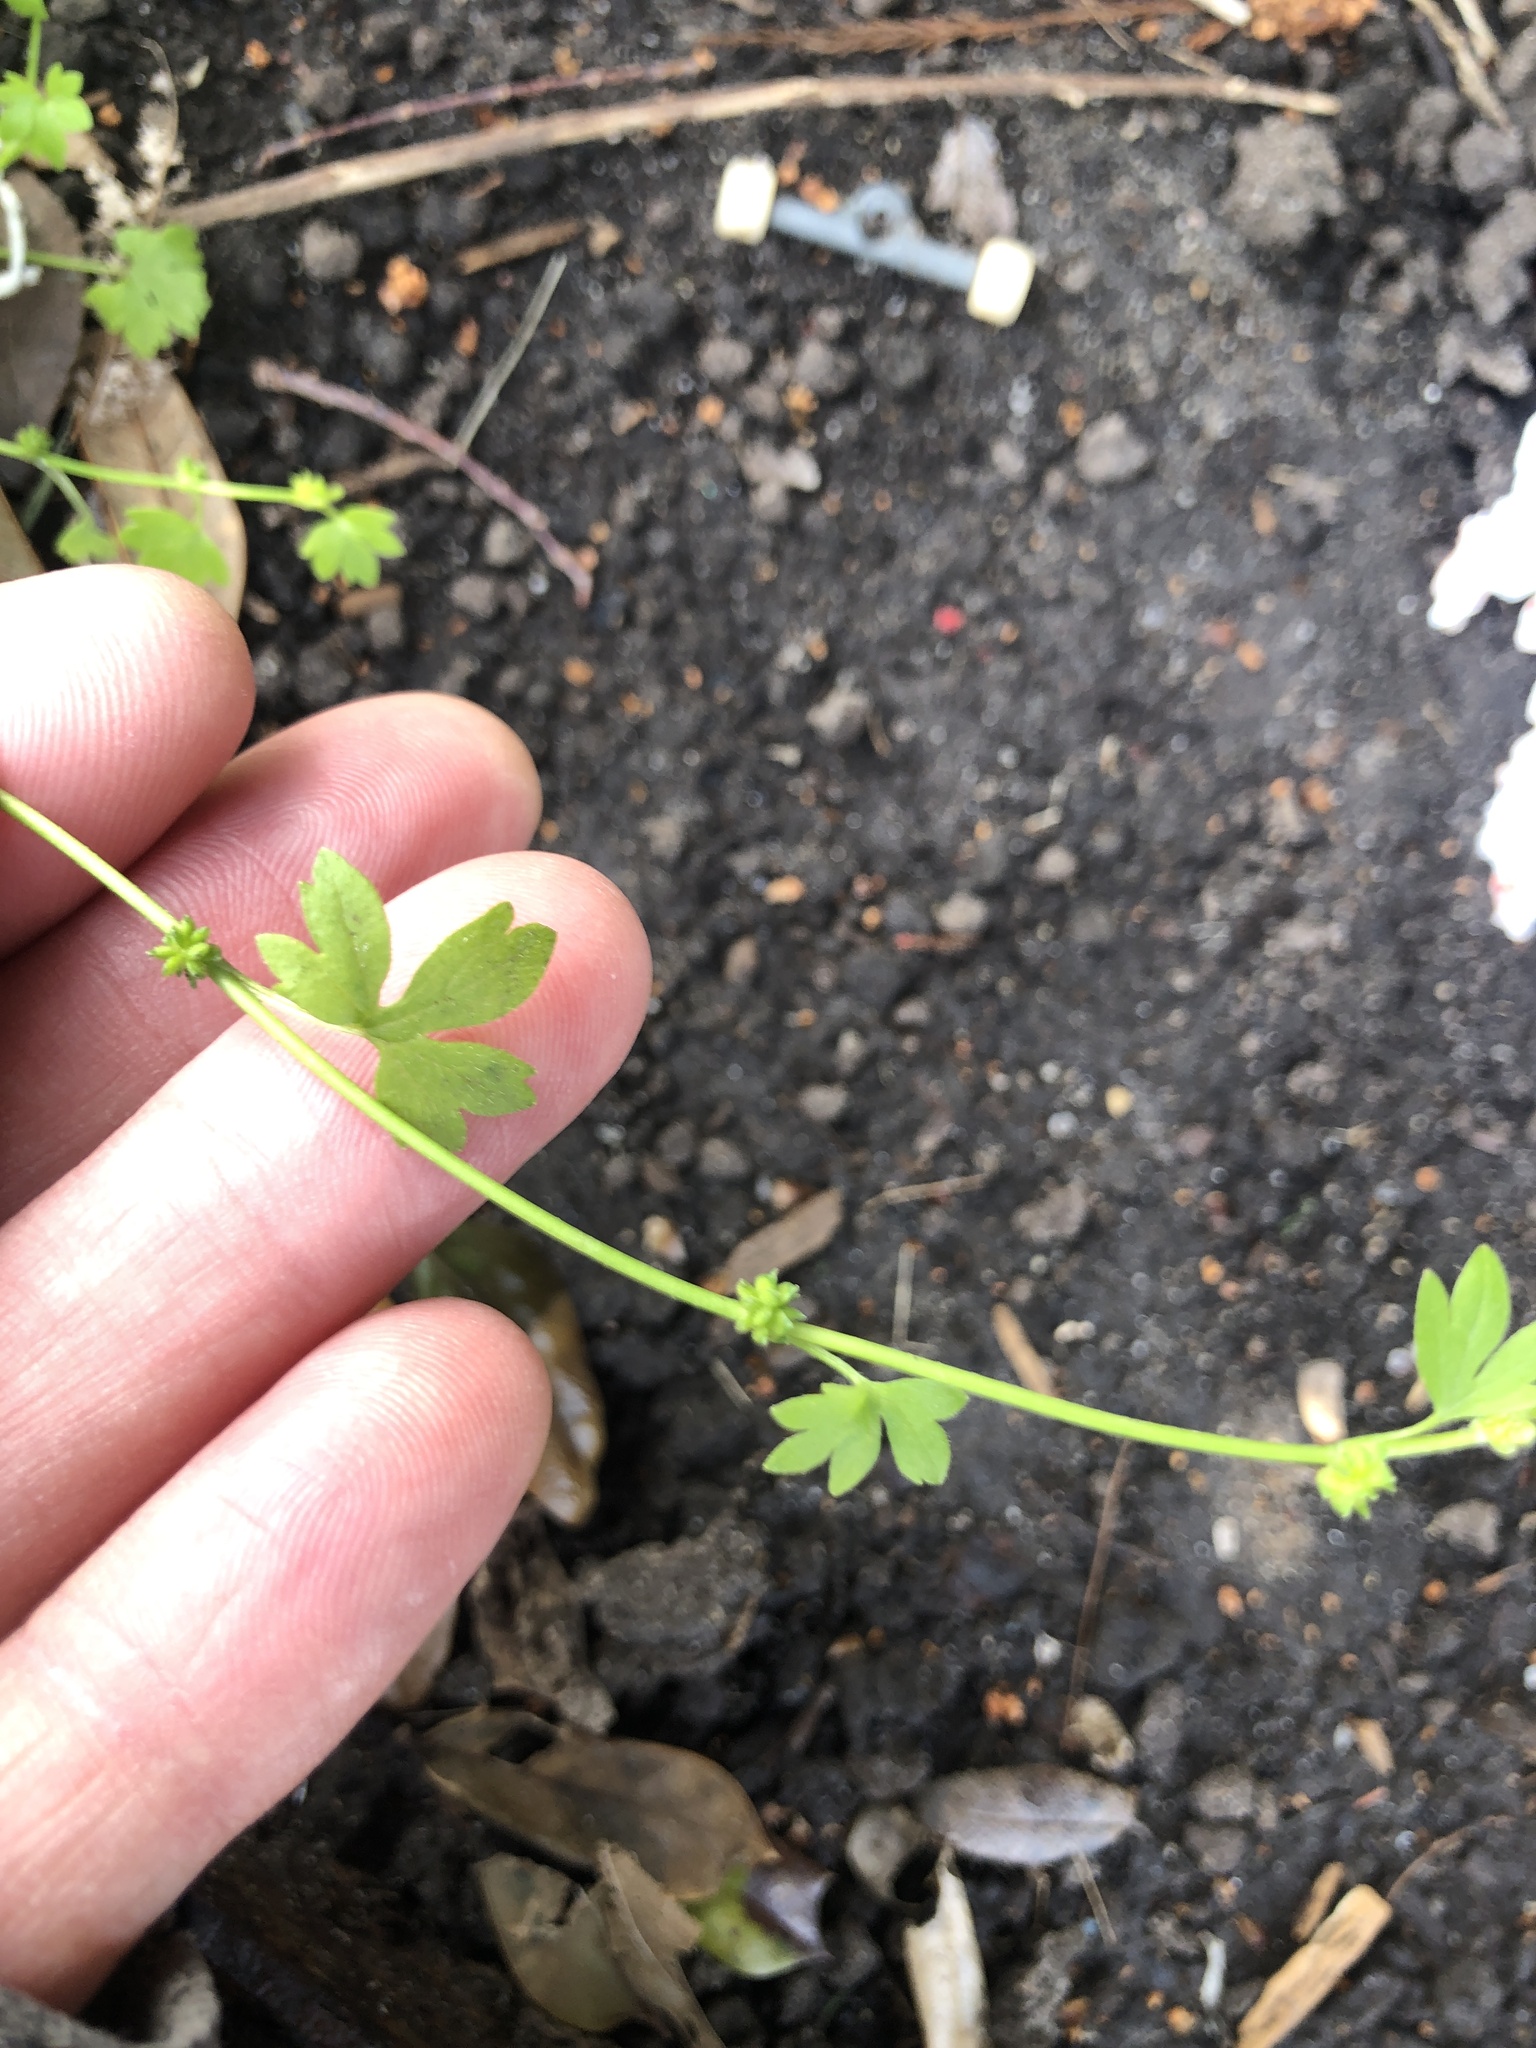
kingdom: Plantae
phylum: Tracheophyta
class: Magnoliopsida
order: Ranunculales
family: Ranunculaceae
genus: Ranunculus
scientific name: Ranunculus platensis
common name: Prairie buttercup
